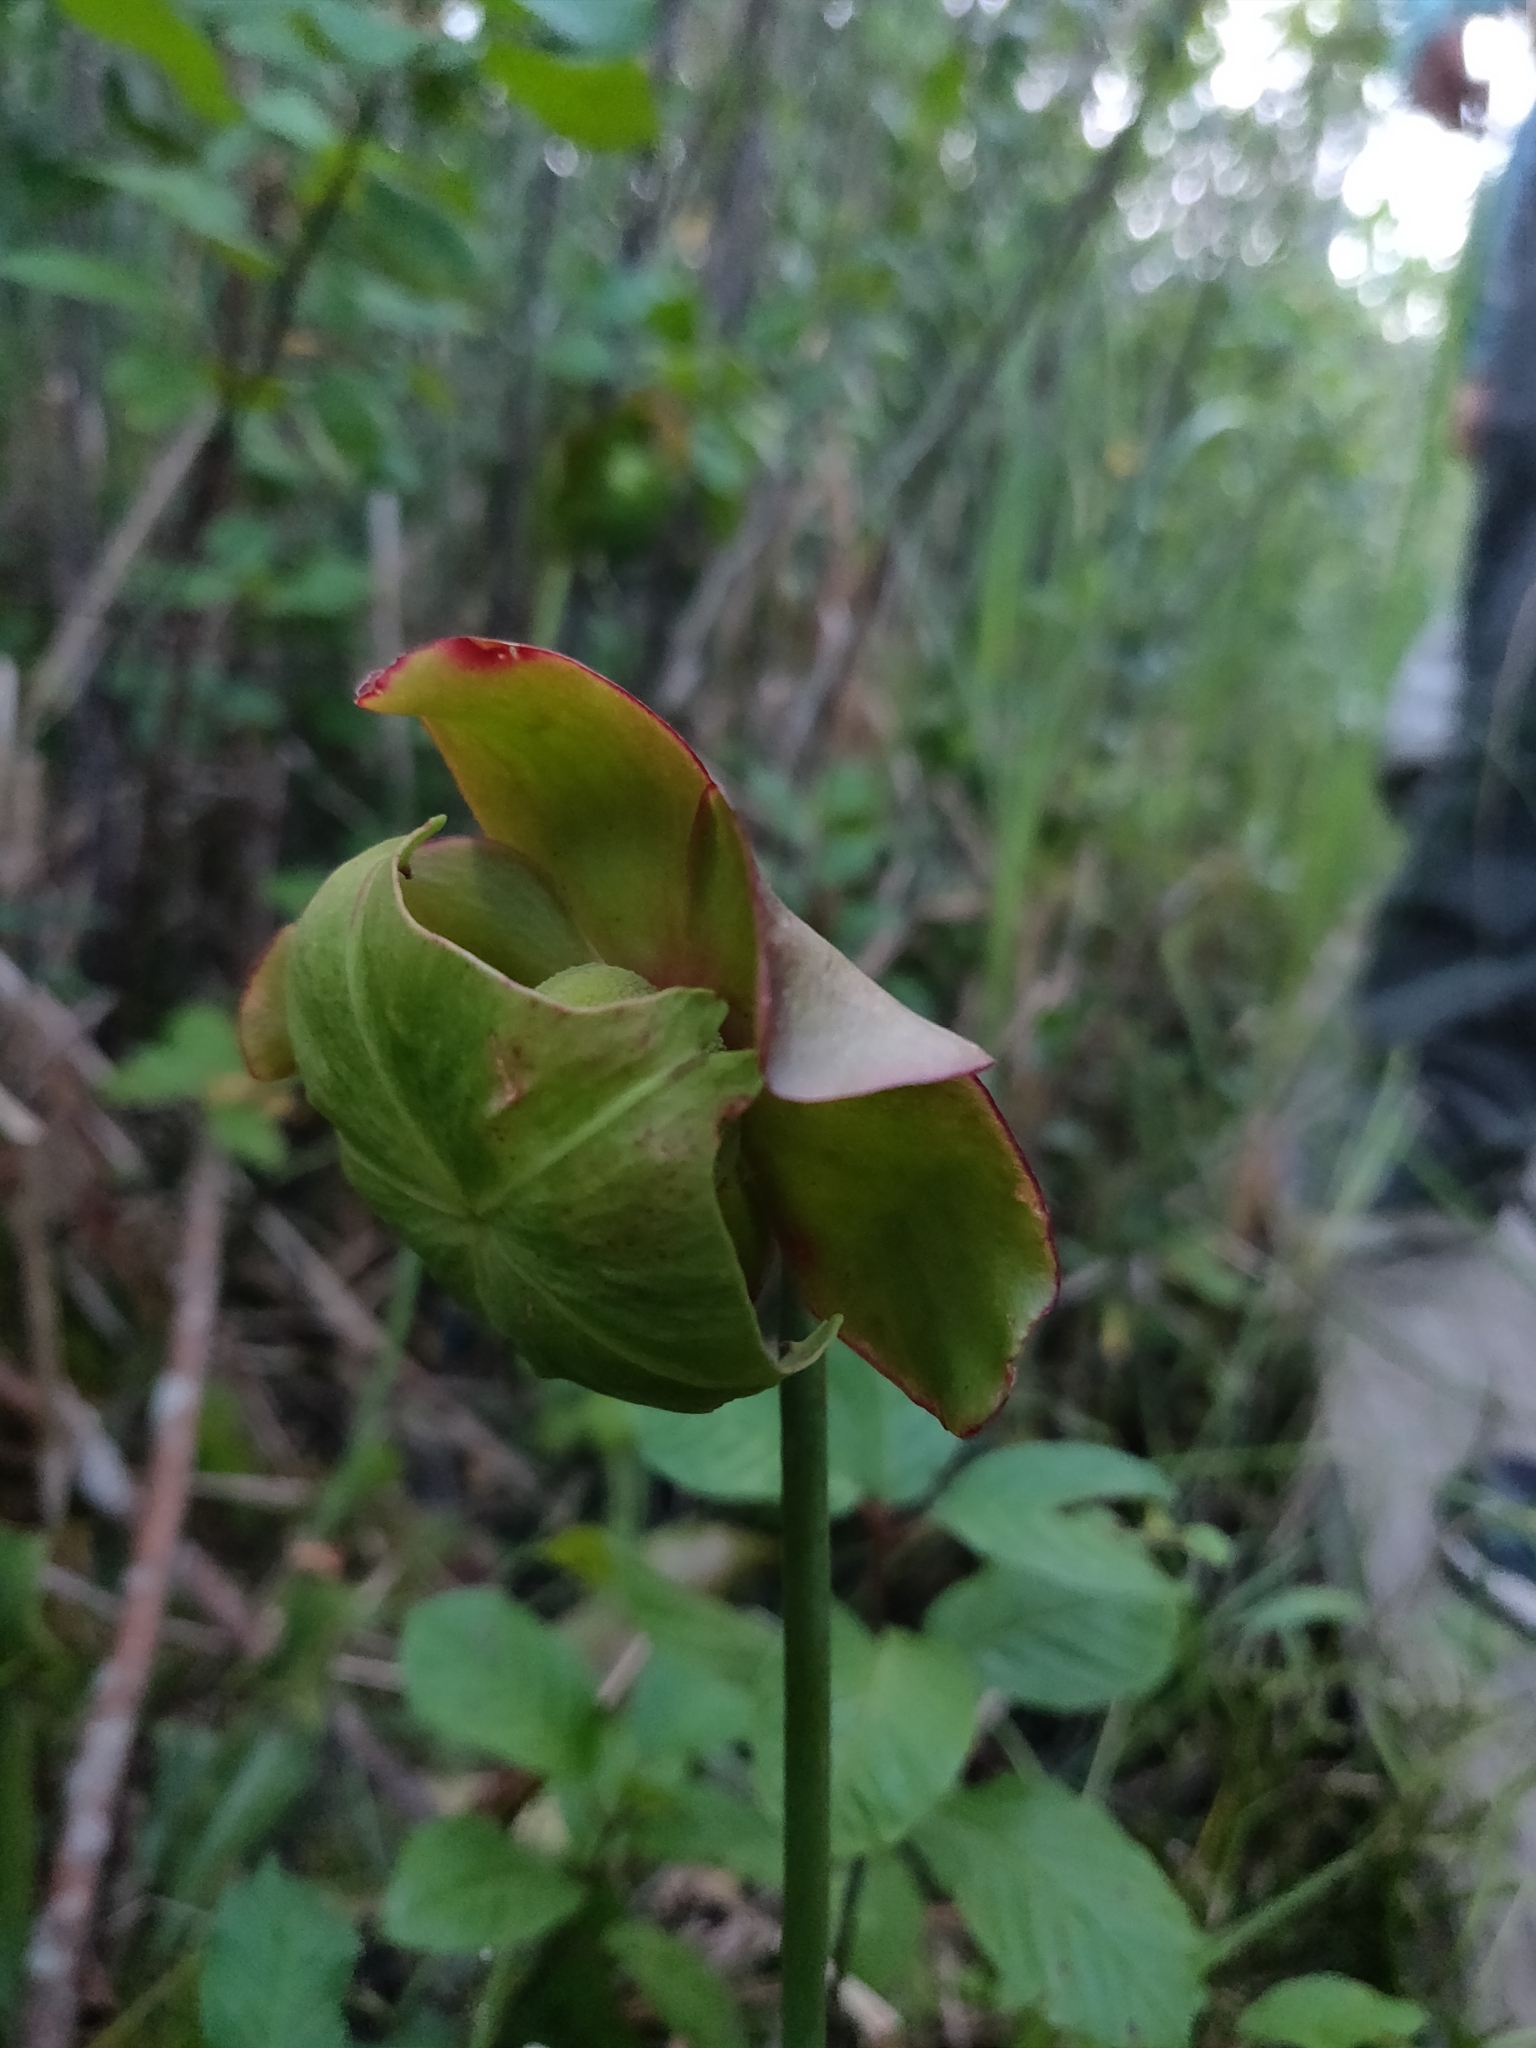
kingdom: Plantae
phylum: Tracheophyta
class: Magnoliopsida
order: Ericales
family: Sarraceniaceae
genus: Sarracenia
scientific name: Sarracenia purpurea
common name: Pitcherplant
